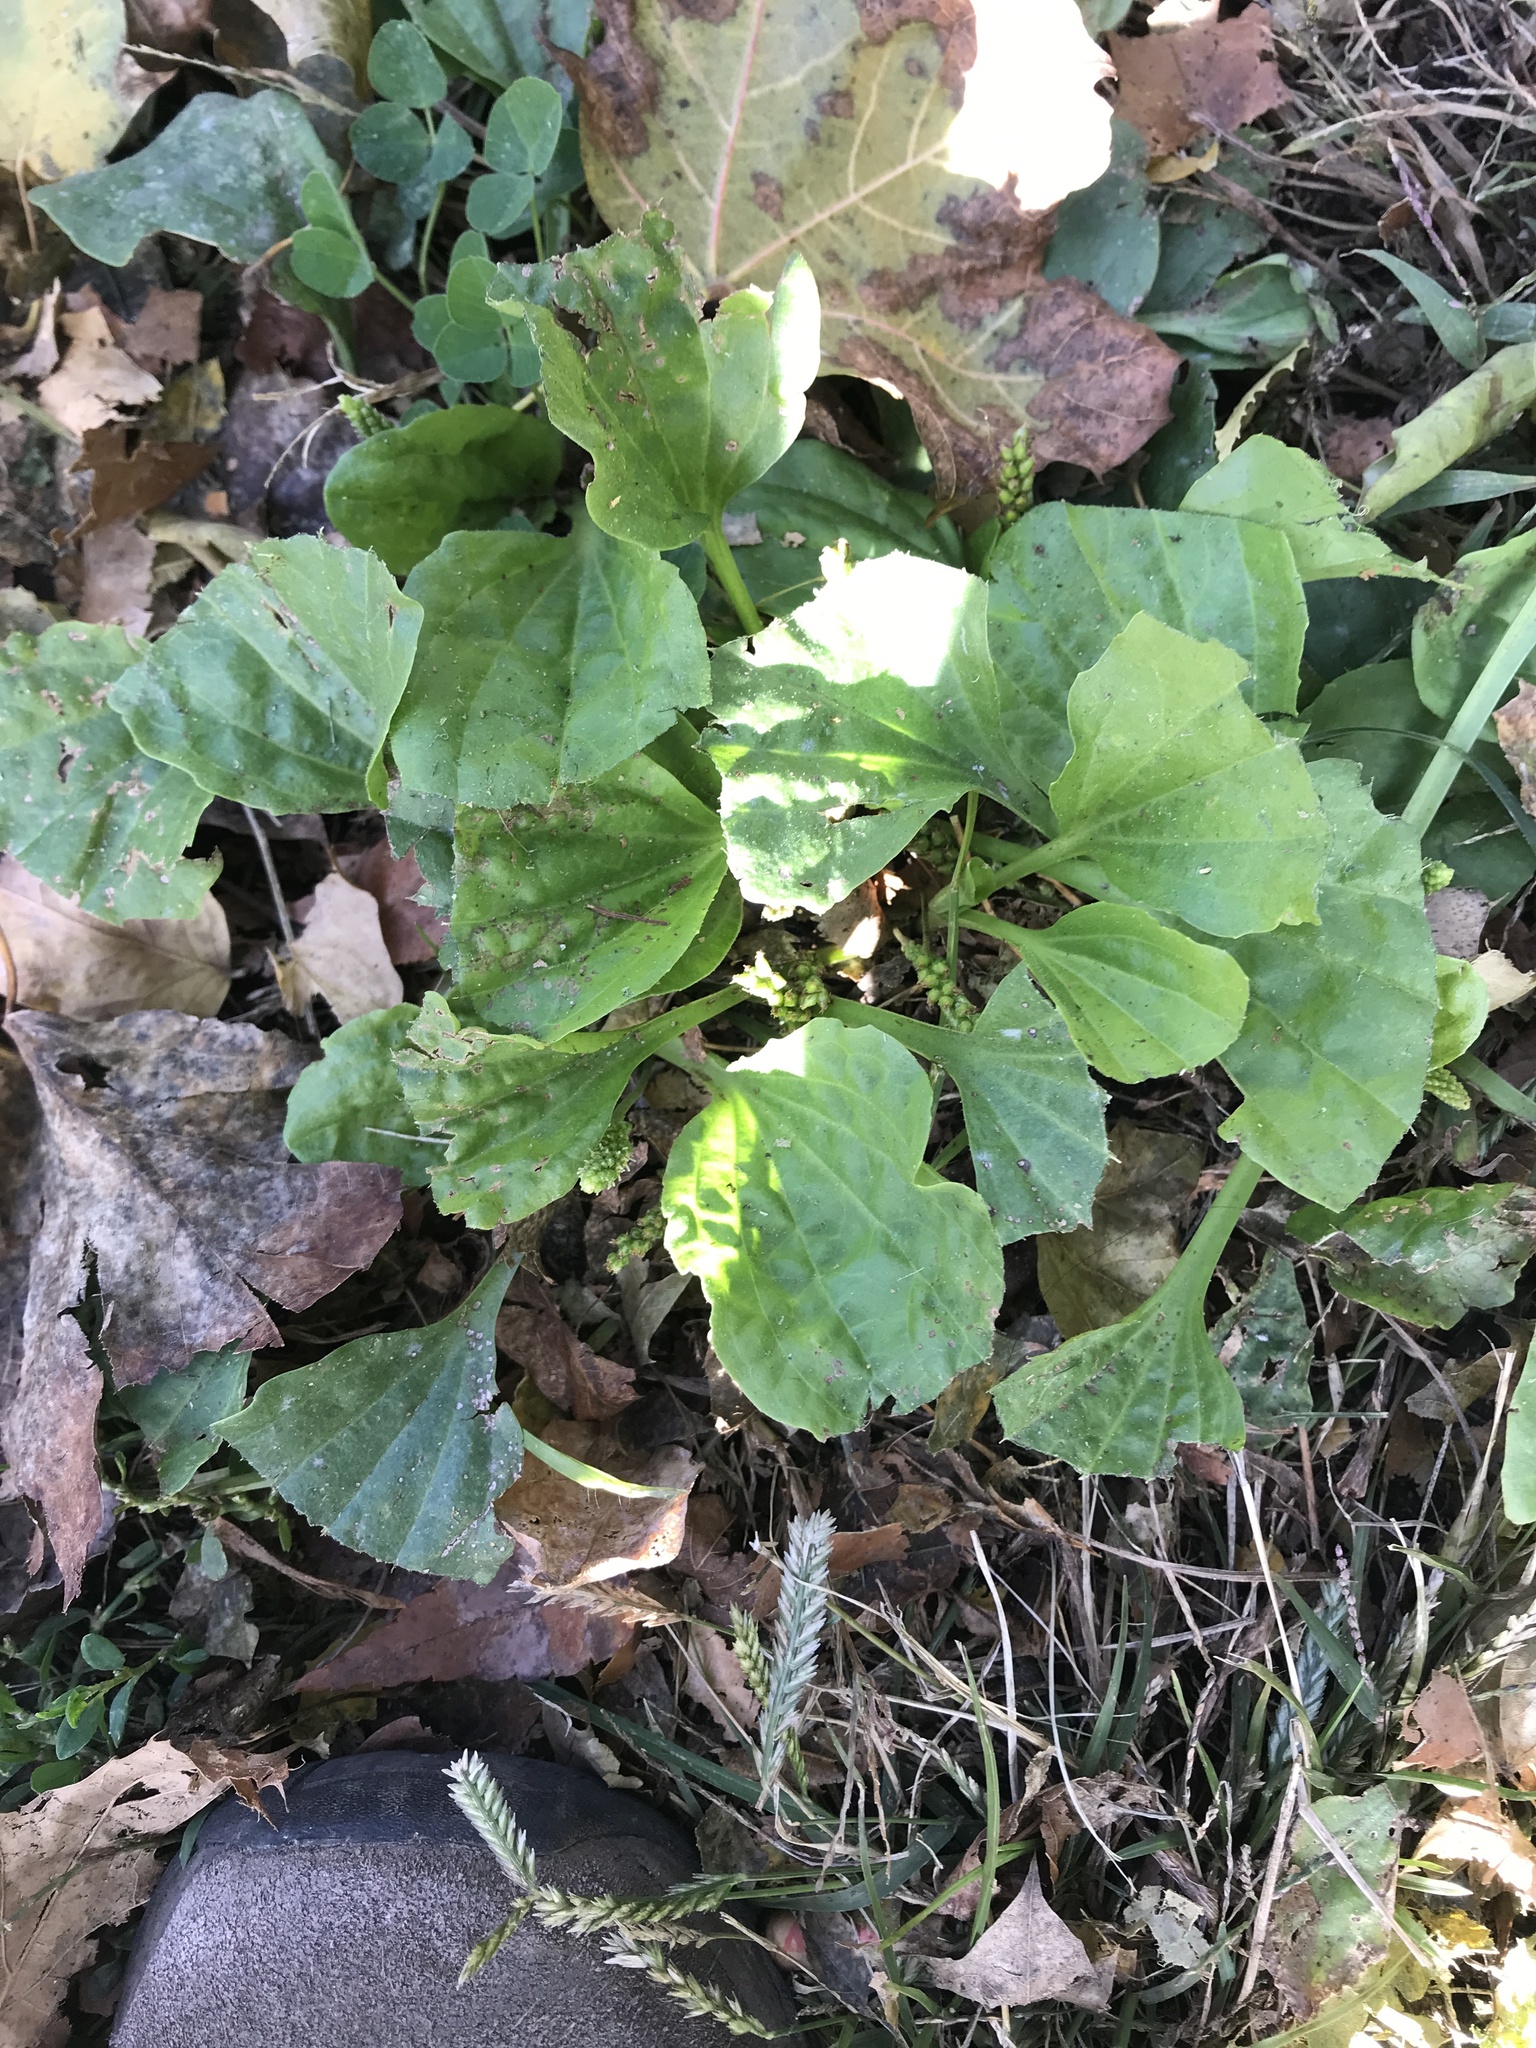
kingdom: Plantae
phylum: Tracheophyta
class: Magnoliopsida
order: Lamiales
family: Plantaginaceae
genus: Plantago
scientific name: Plantago
